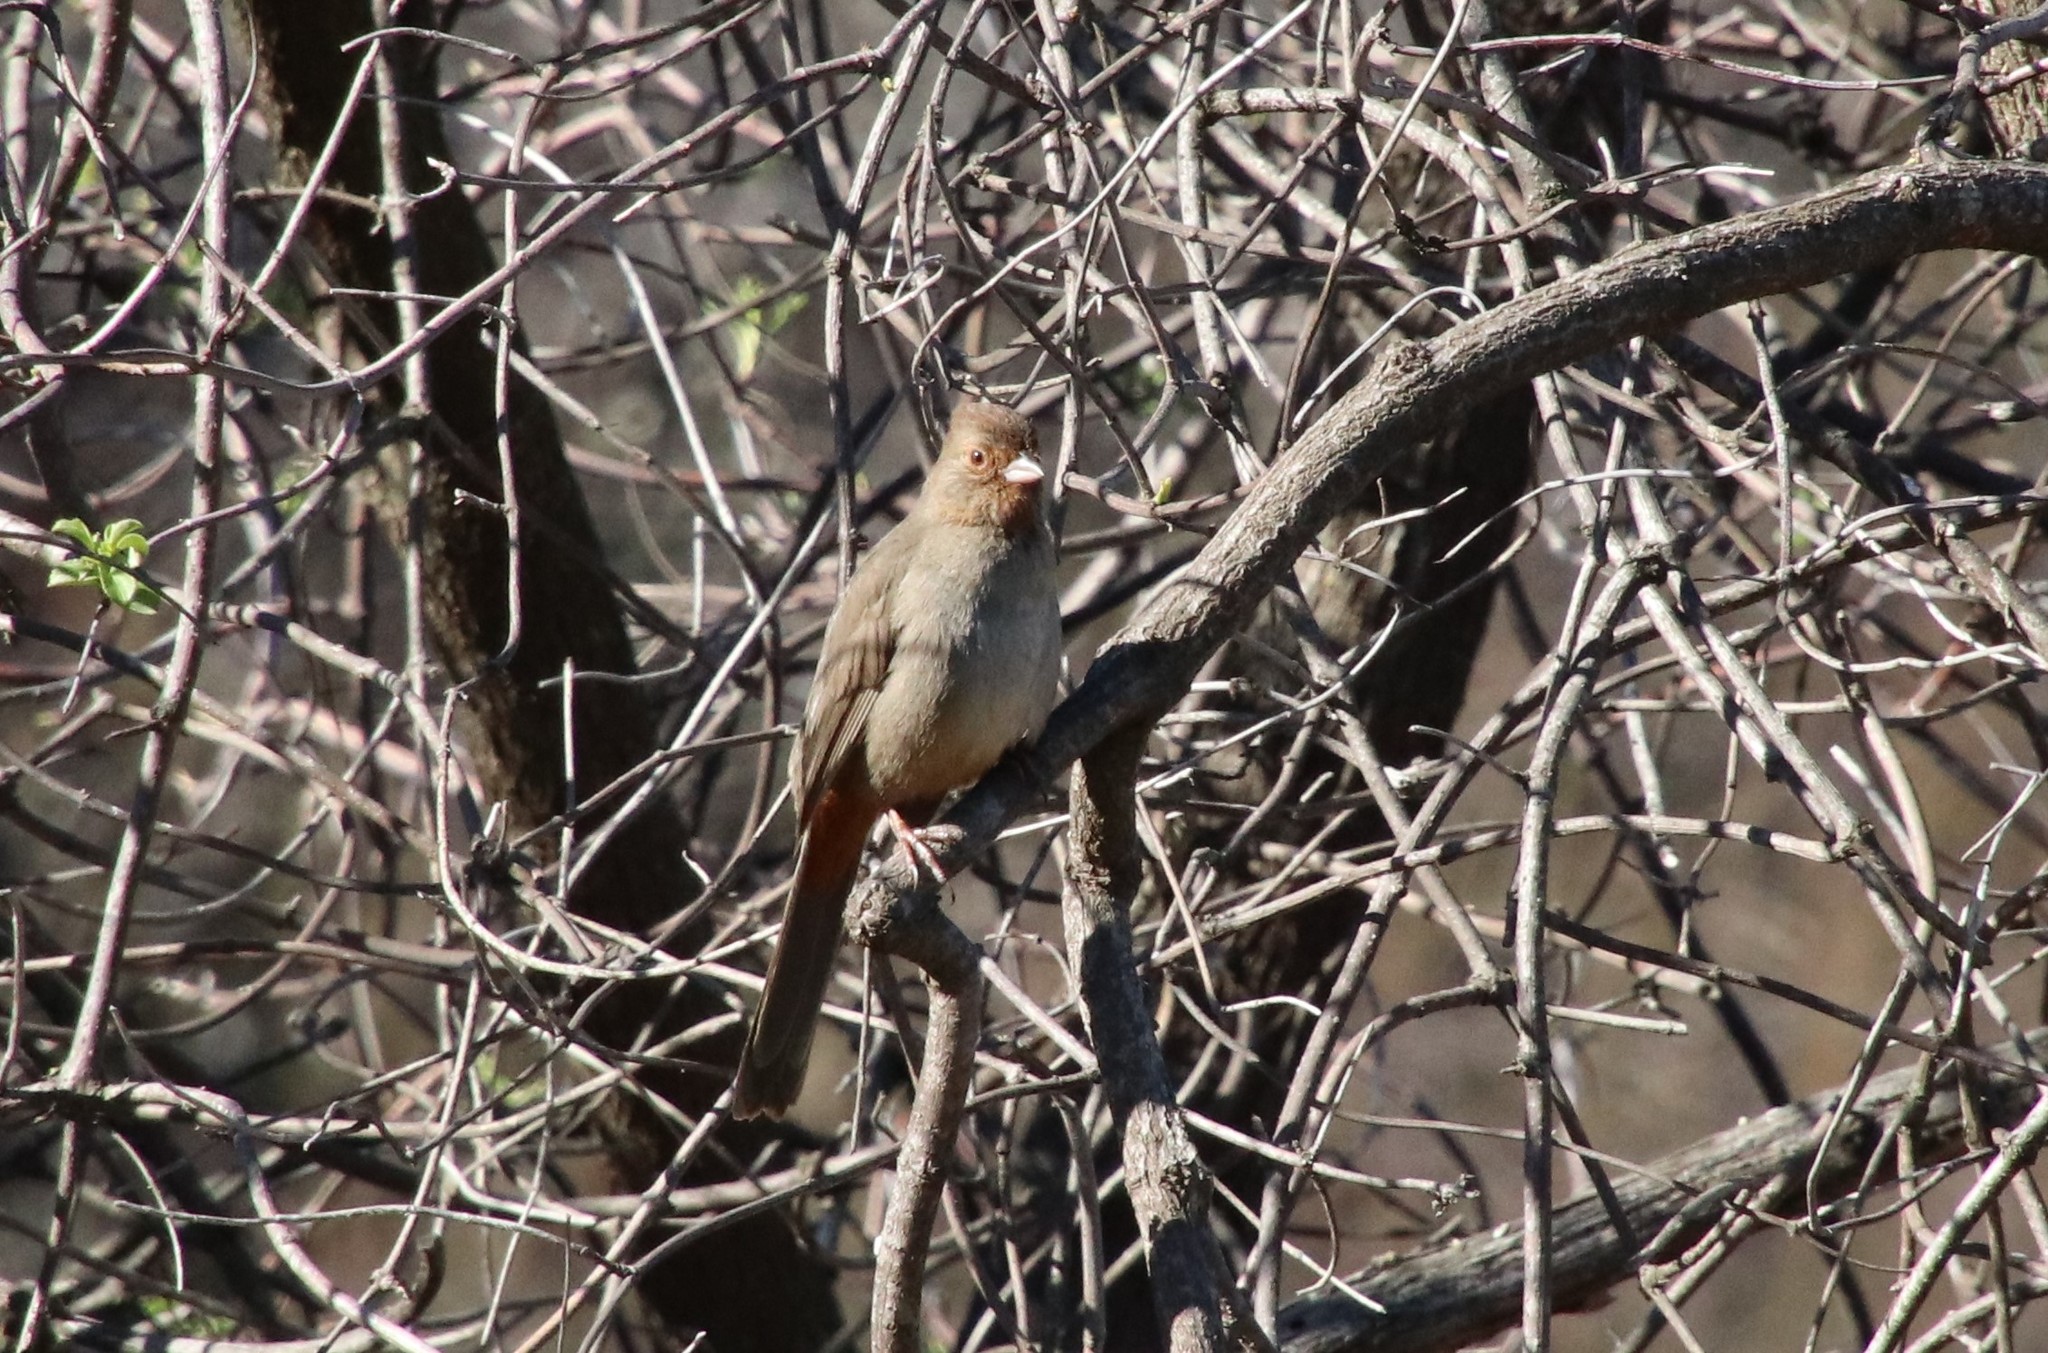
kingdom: Animalia
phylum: Chordata
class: Aves
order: Passeriformes
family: Passerellidae
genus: Melozone
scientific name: Melozone crissalis
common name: California towhee
